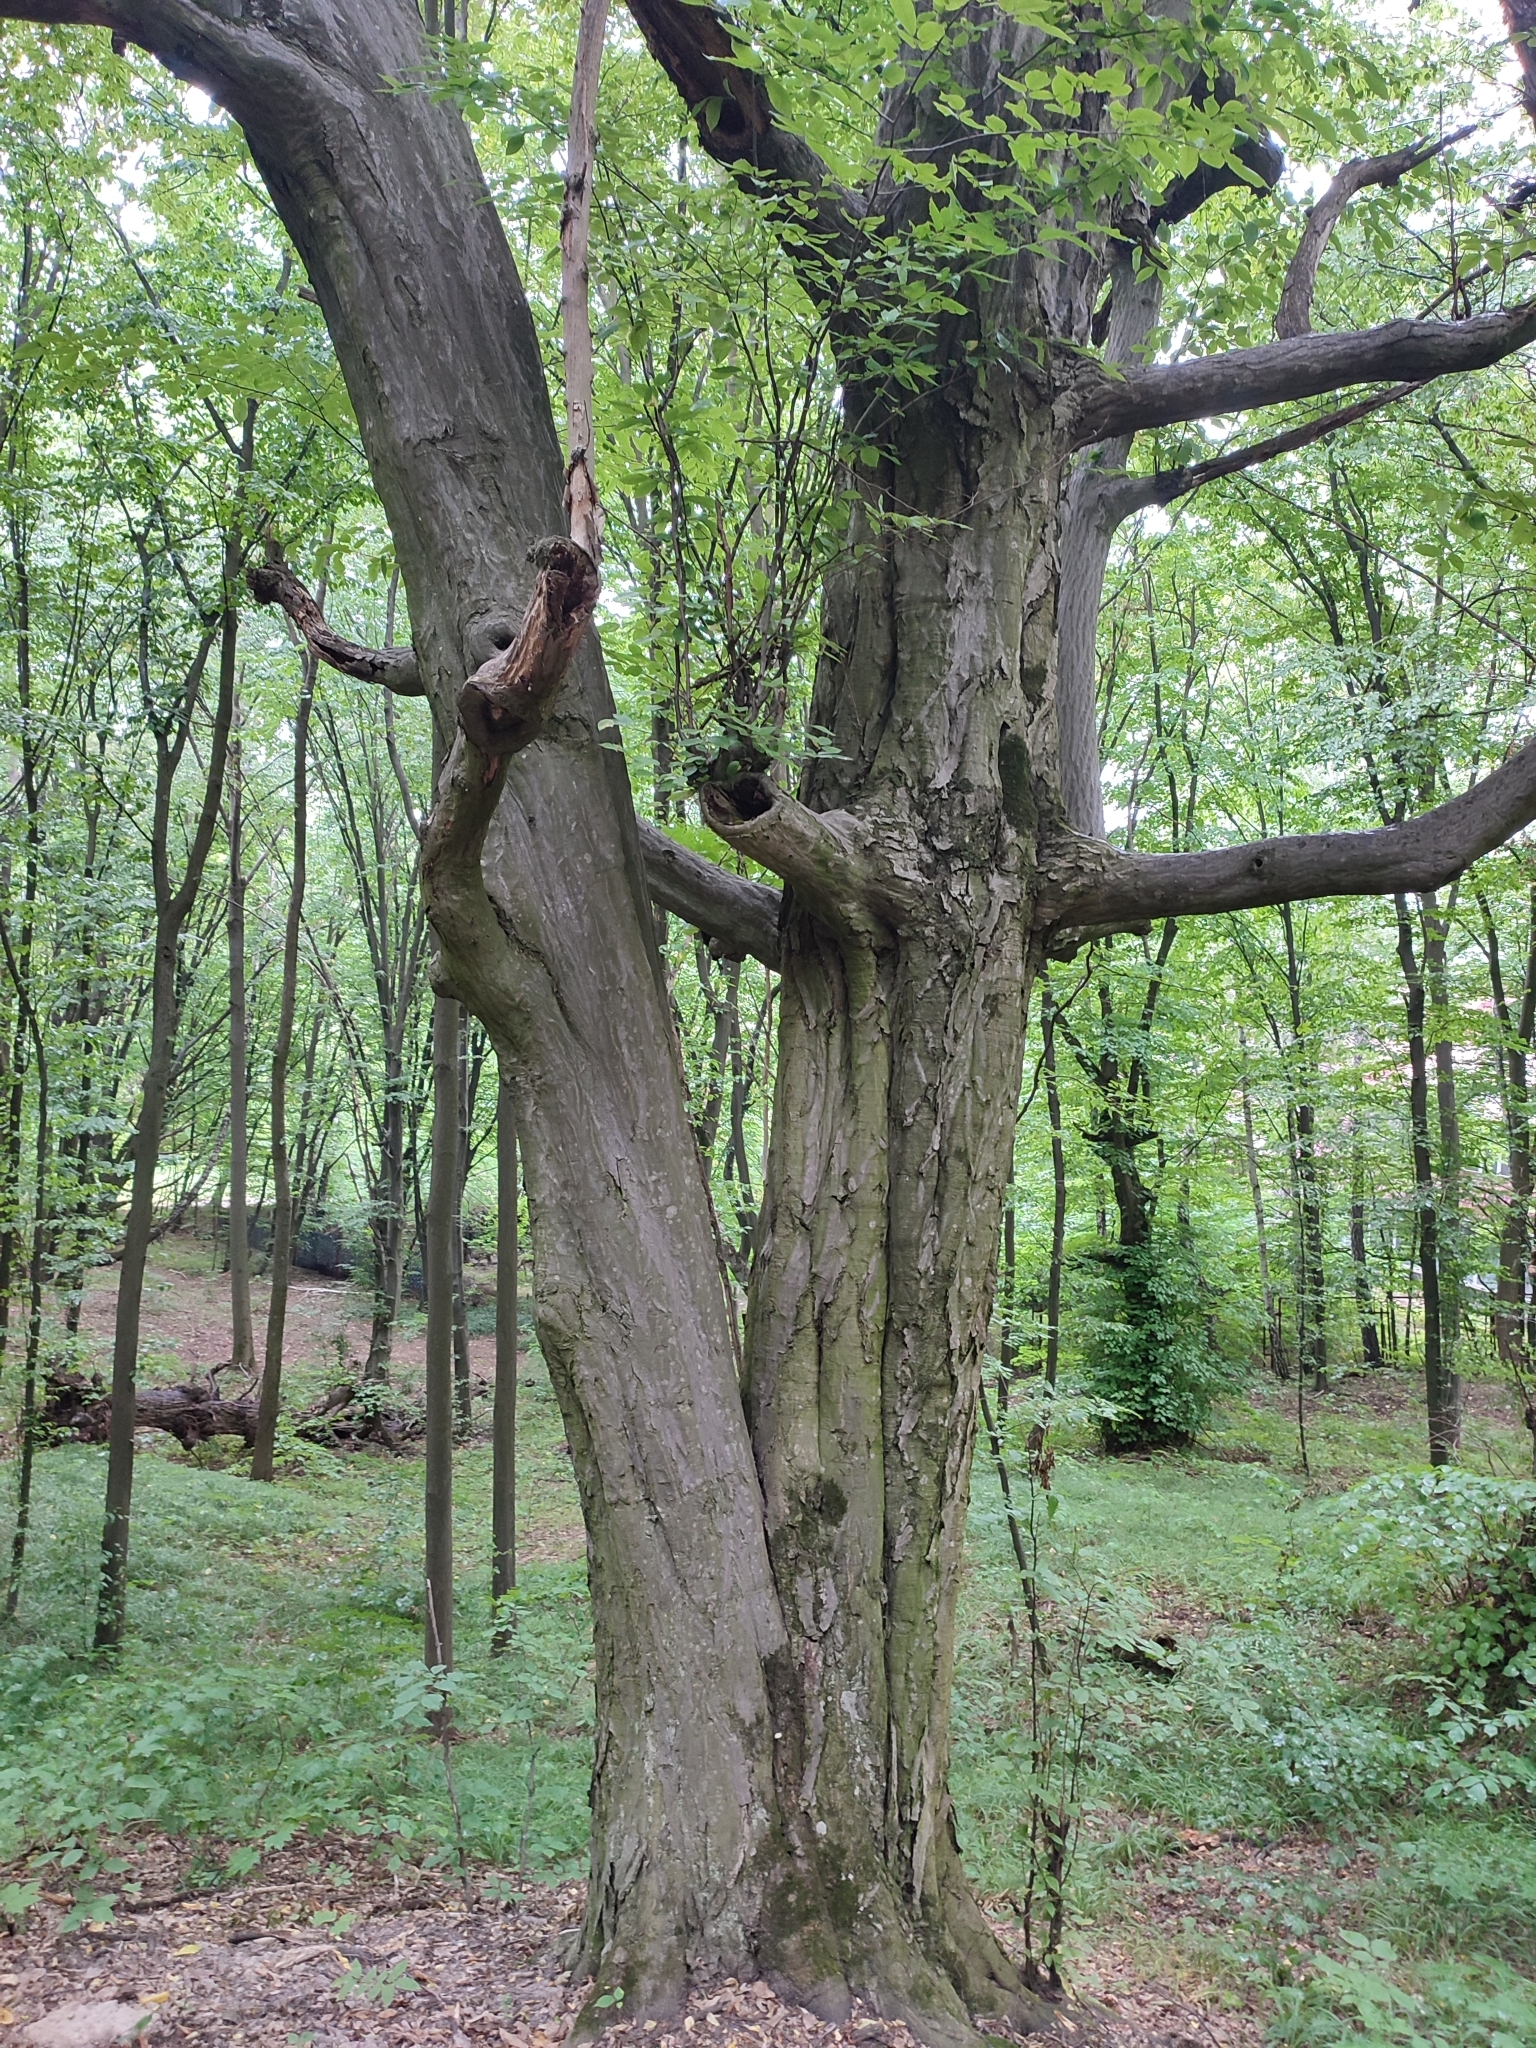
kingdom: Plantae
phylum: Tracheophyta
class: Magnoliopsida
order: Fagales
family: Betulaceae
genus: Carpinus
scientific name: Carpinus betulus
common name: Hornbeam
